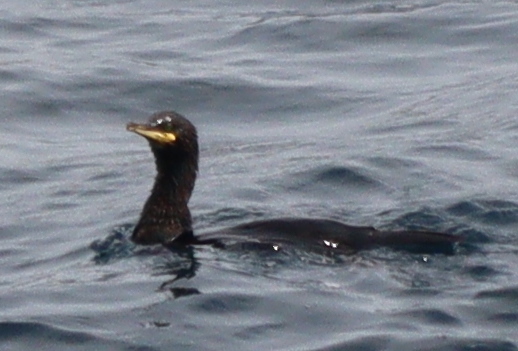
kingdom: Animalia
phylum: Chordata
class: Aves
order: Suliformes
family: Phalacrocoracidae
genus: Phalacrocorax
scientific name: Phalacrocorax aristotelis
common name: European shag
